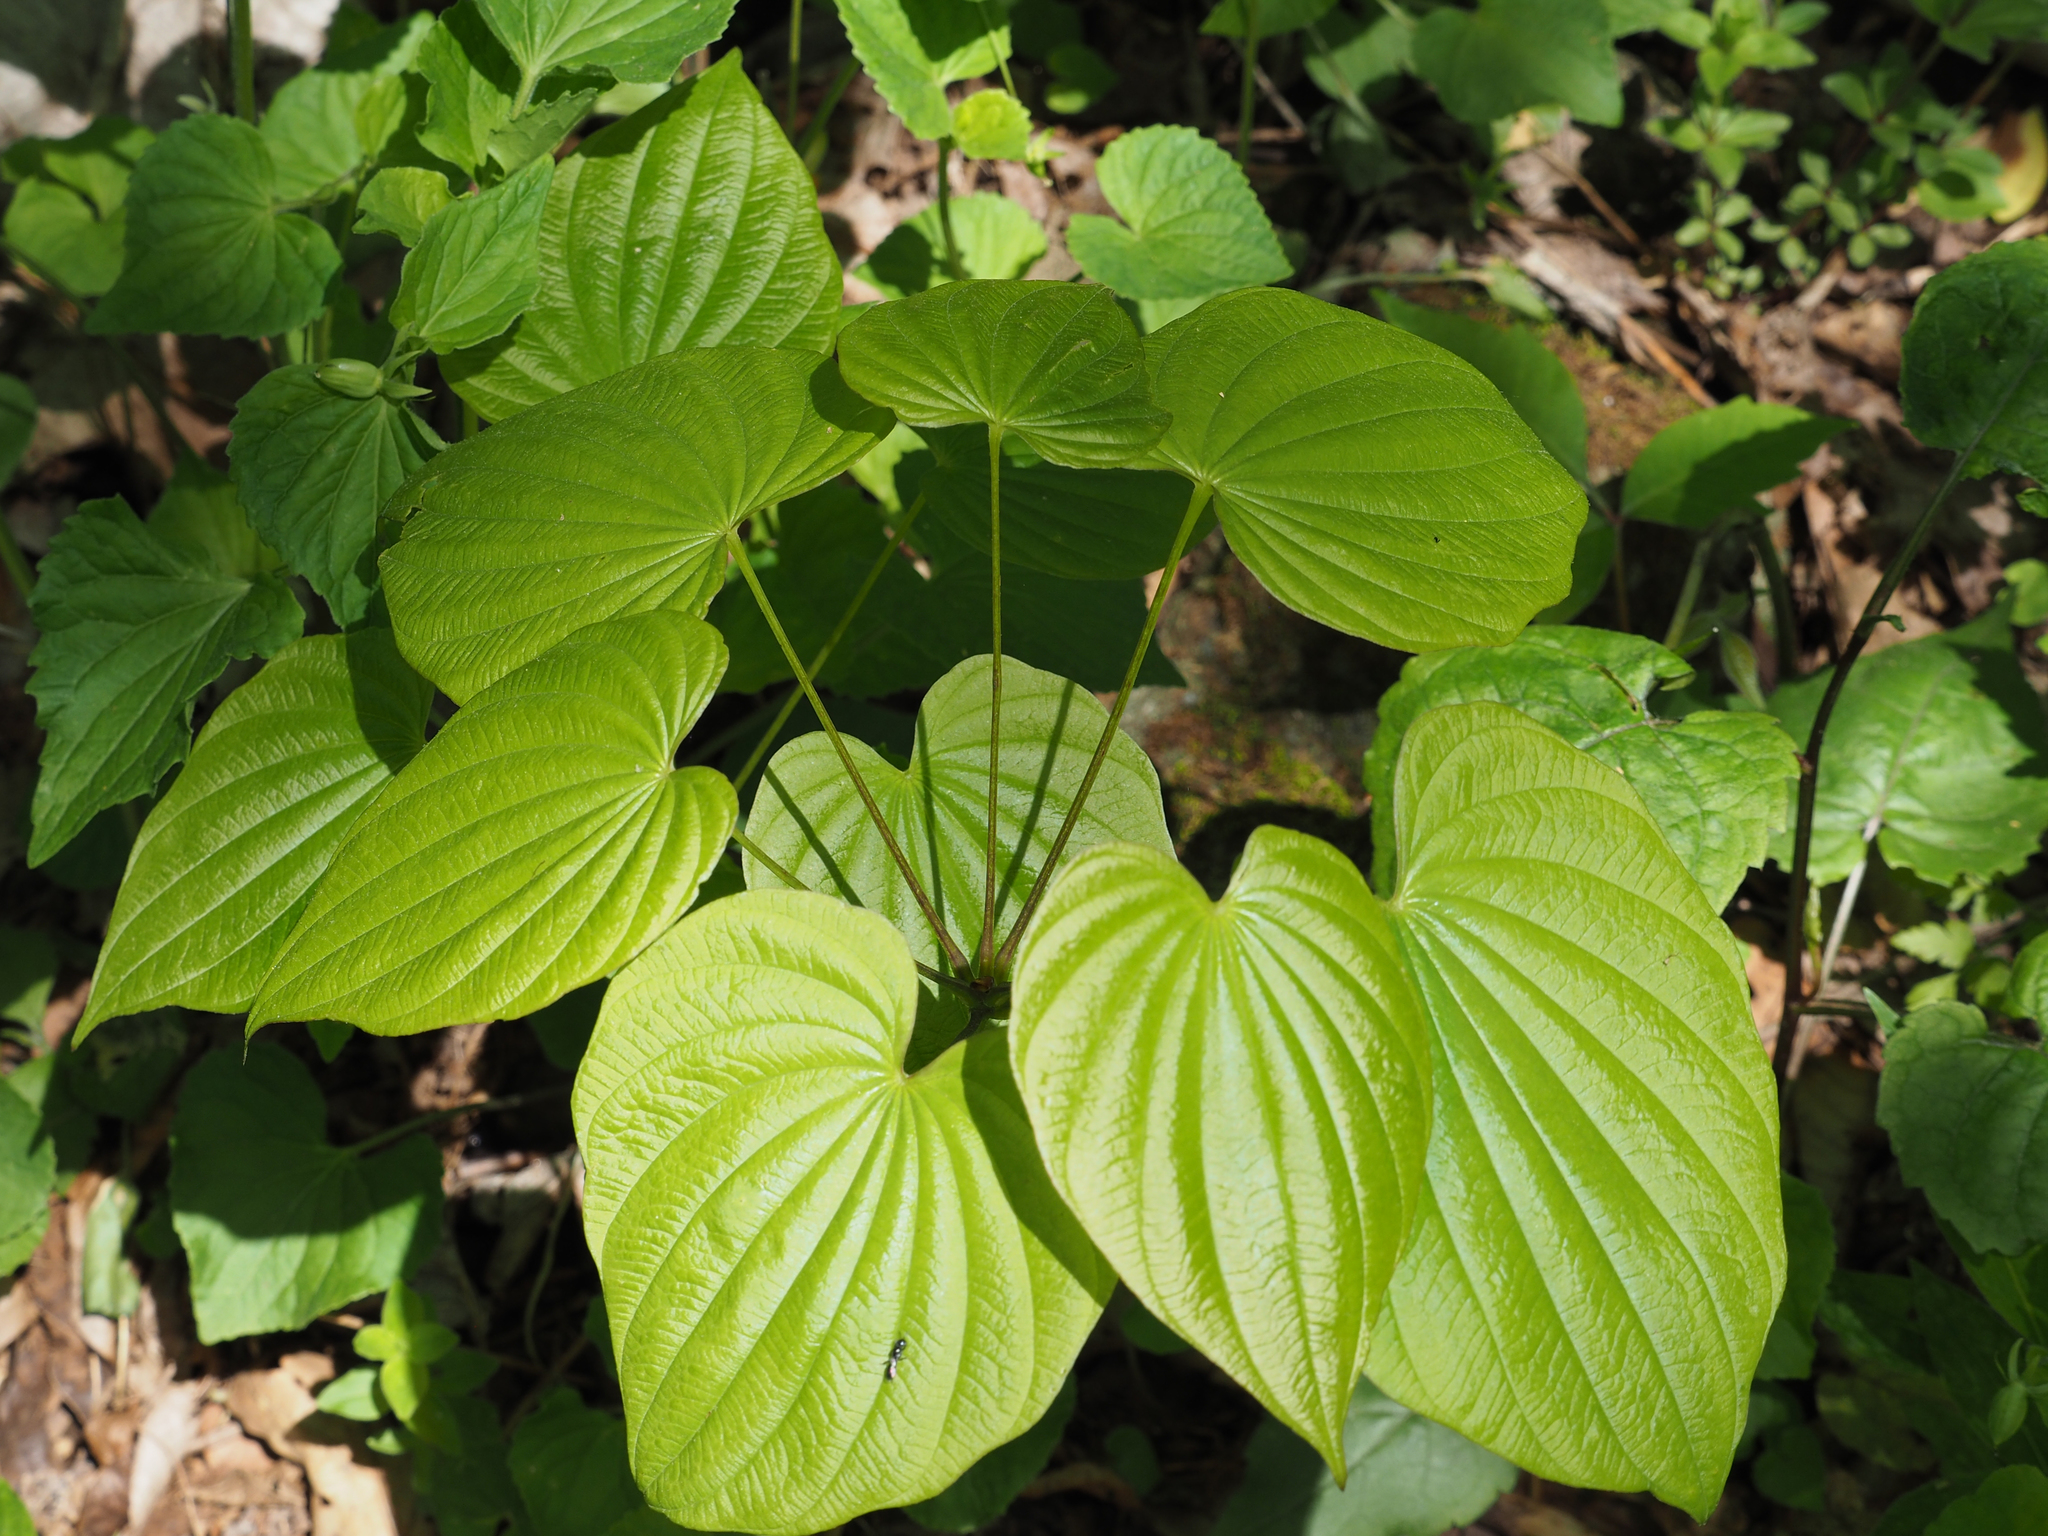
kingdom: Plantae
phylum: Tracheophyta
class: Liliopsida
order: Dioscoreales
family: Dioscoreaceae
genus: Dioscorea
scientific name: Dioscorea villosa
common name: Wild yam
